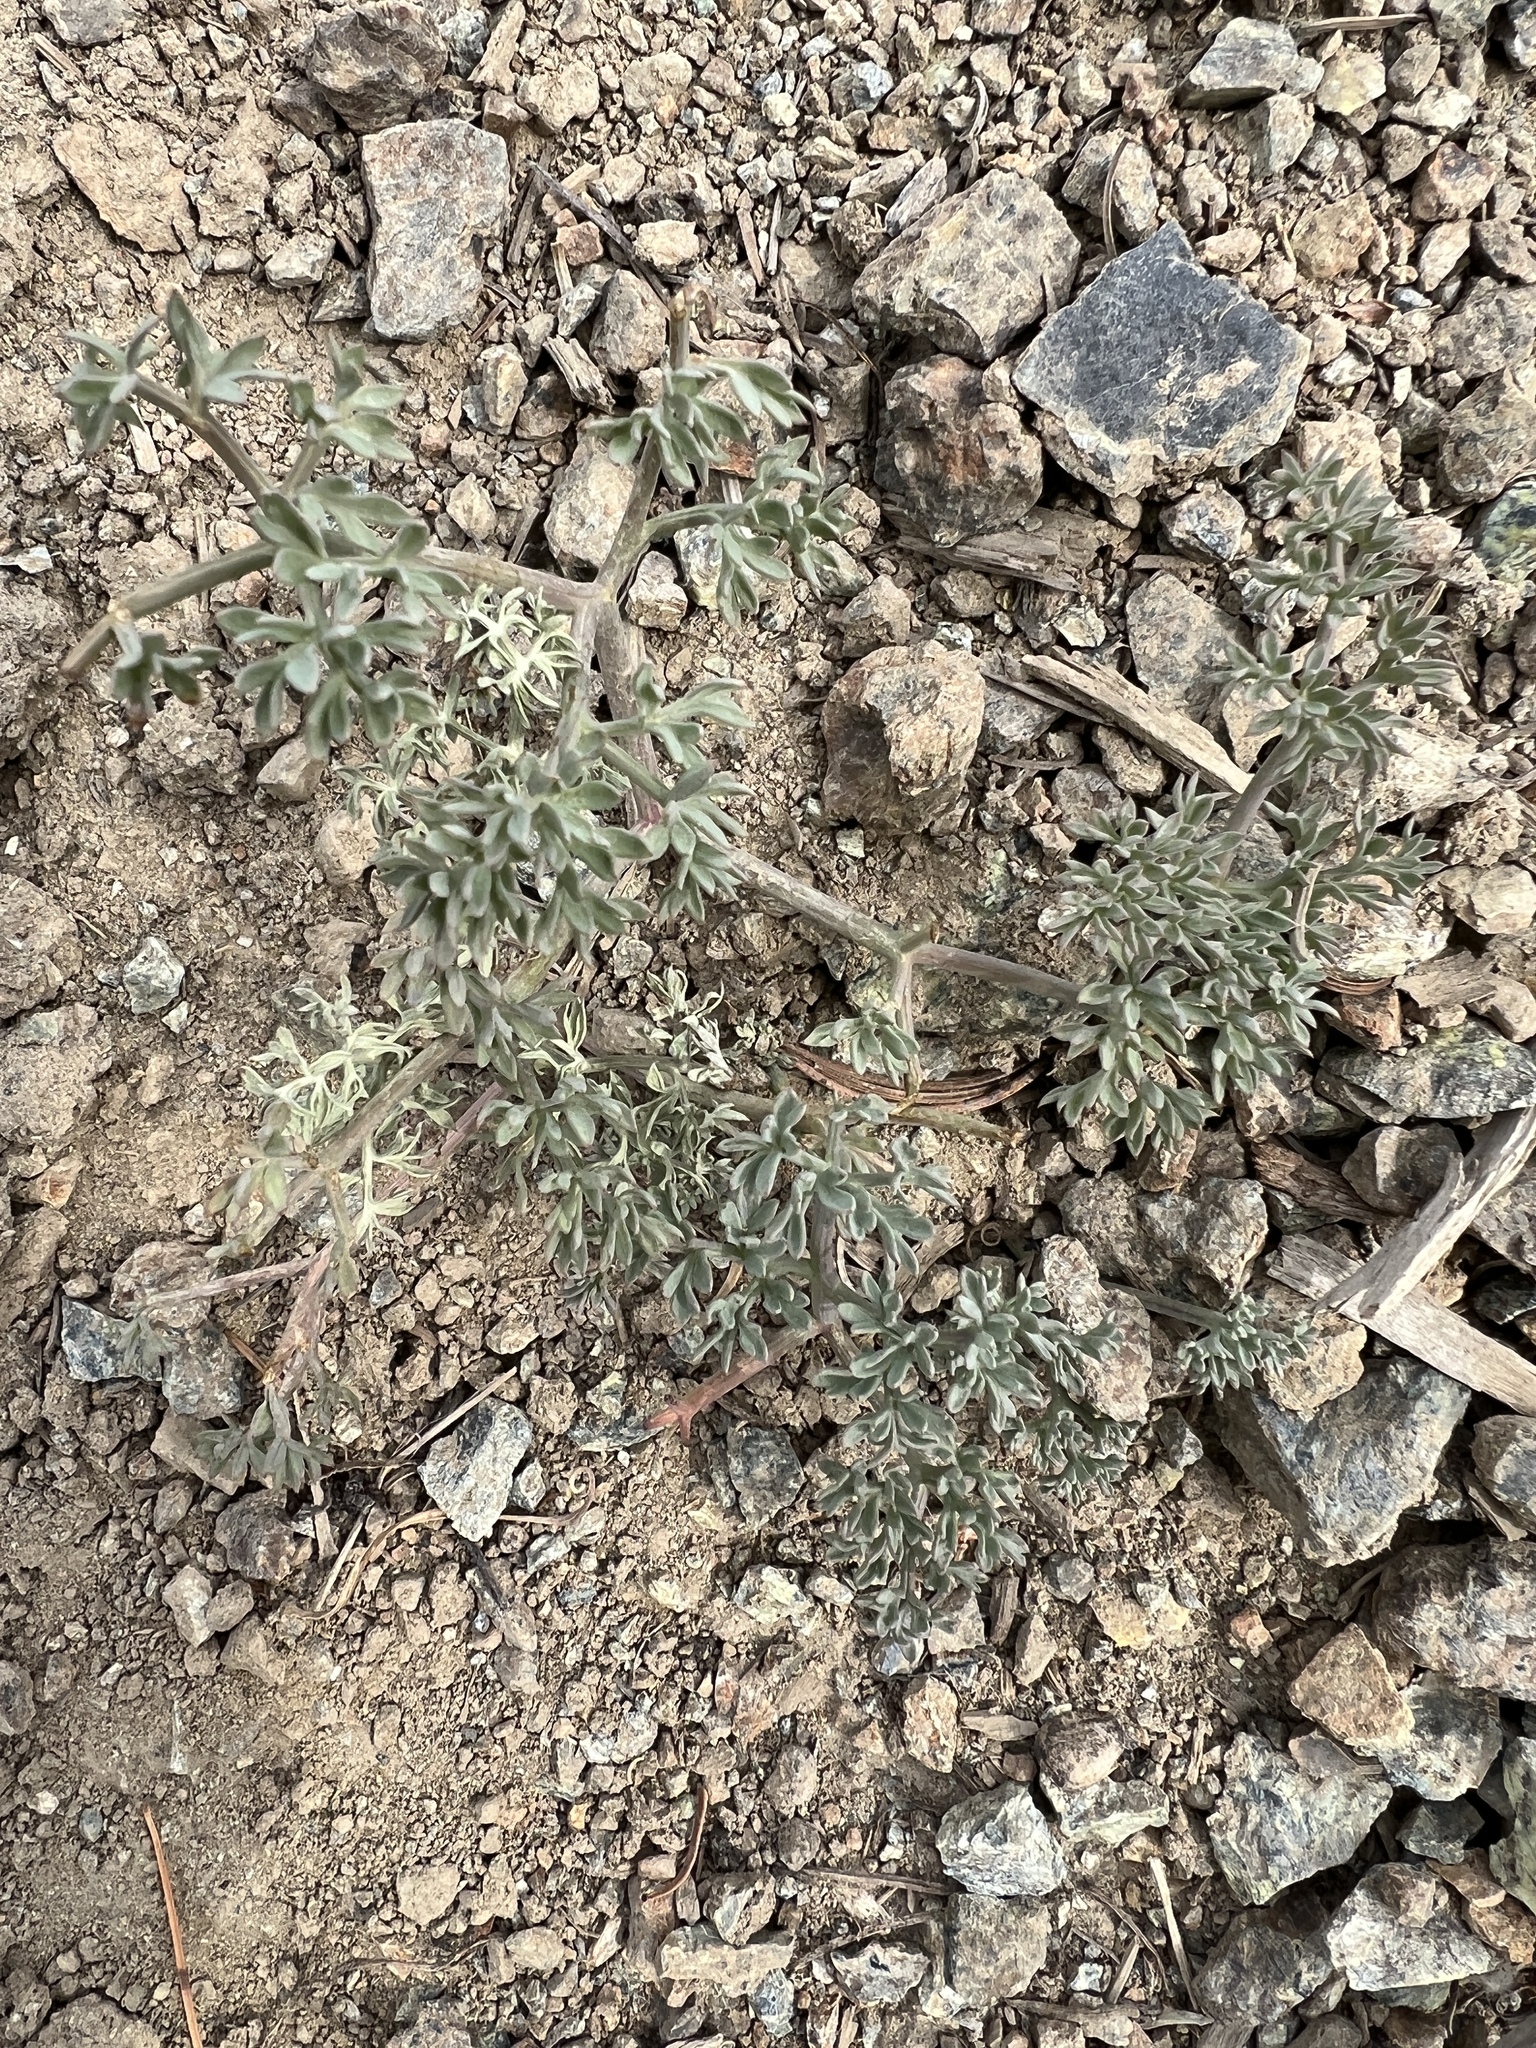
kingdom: Plantae
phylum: Tracheophyta
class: Magnoliopsida
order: Apiales
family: Apiaceae
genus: Lomatium
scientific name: Lomatium cuspidatum
